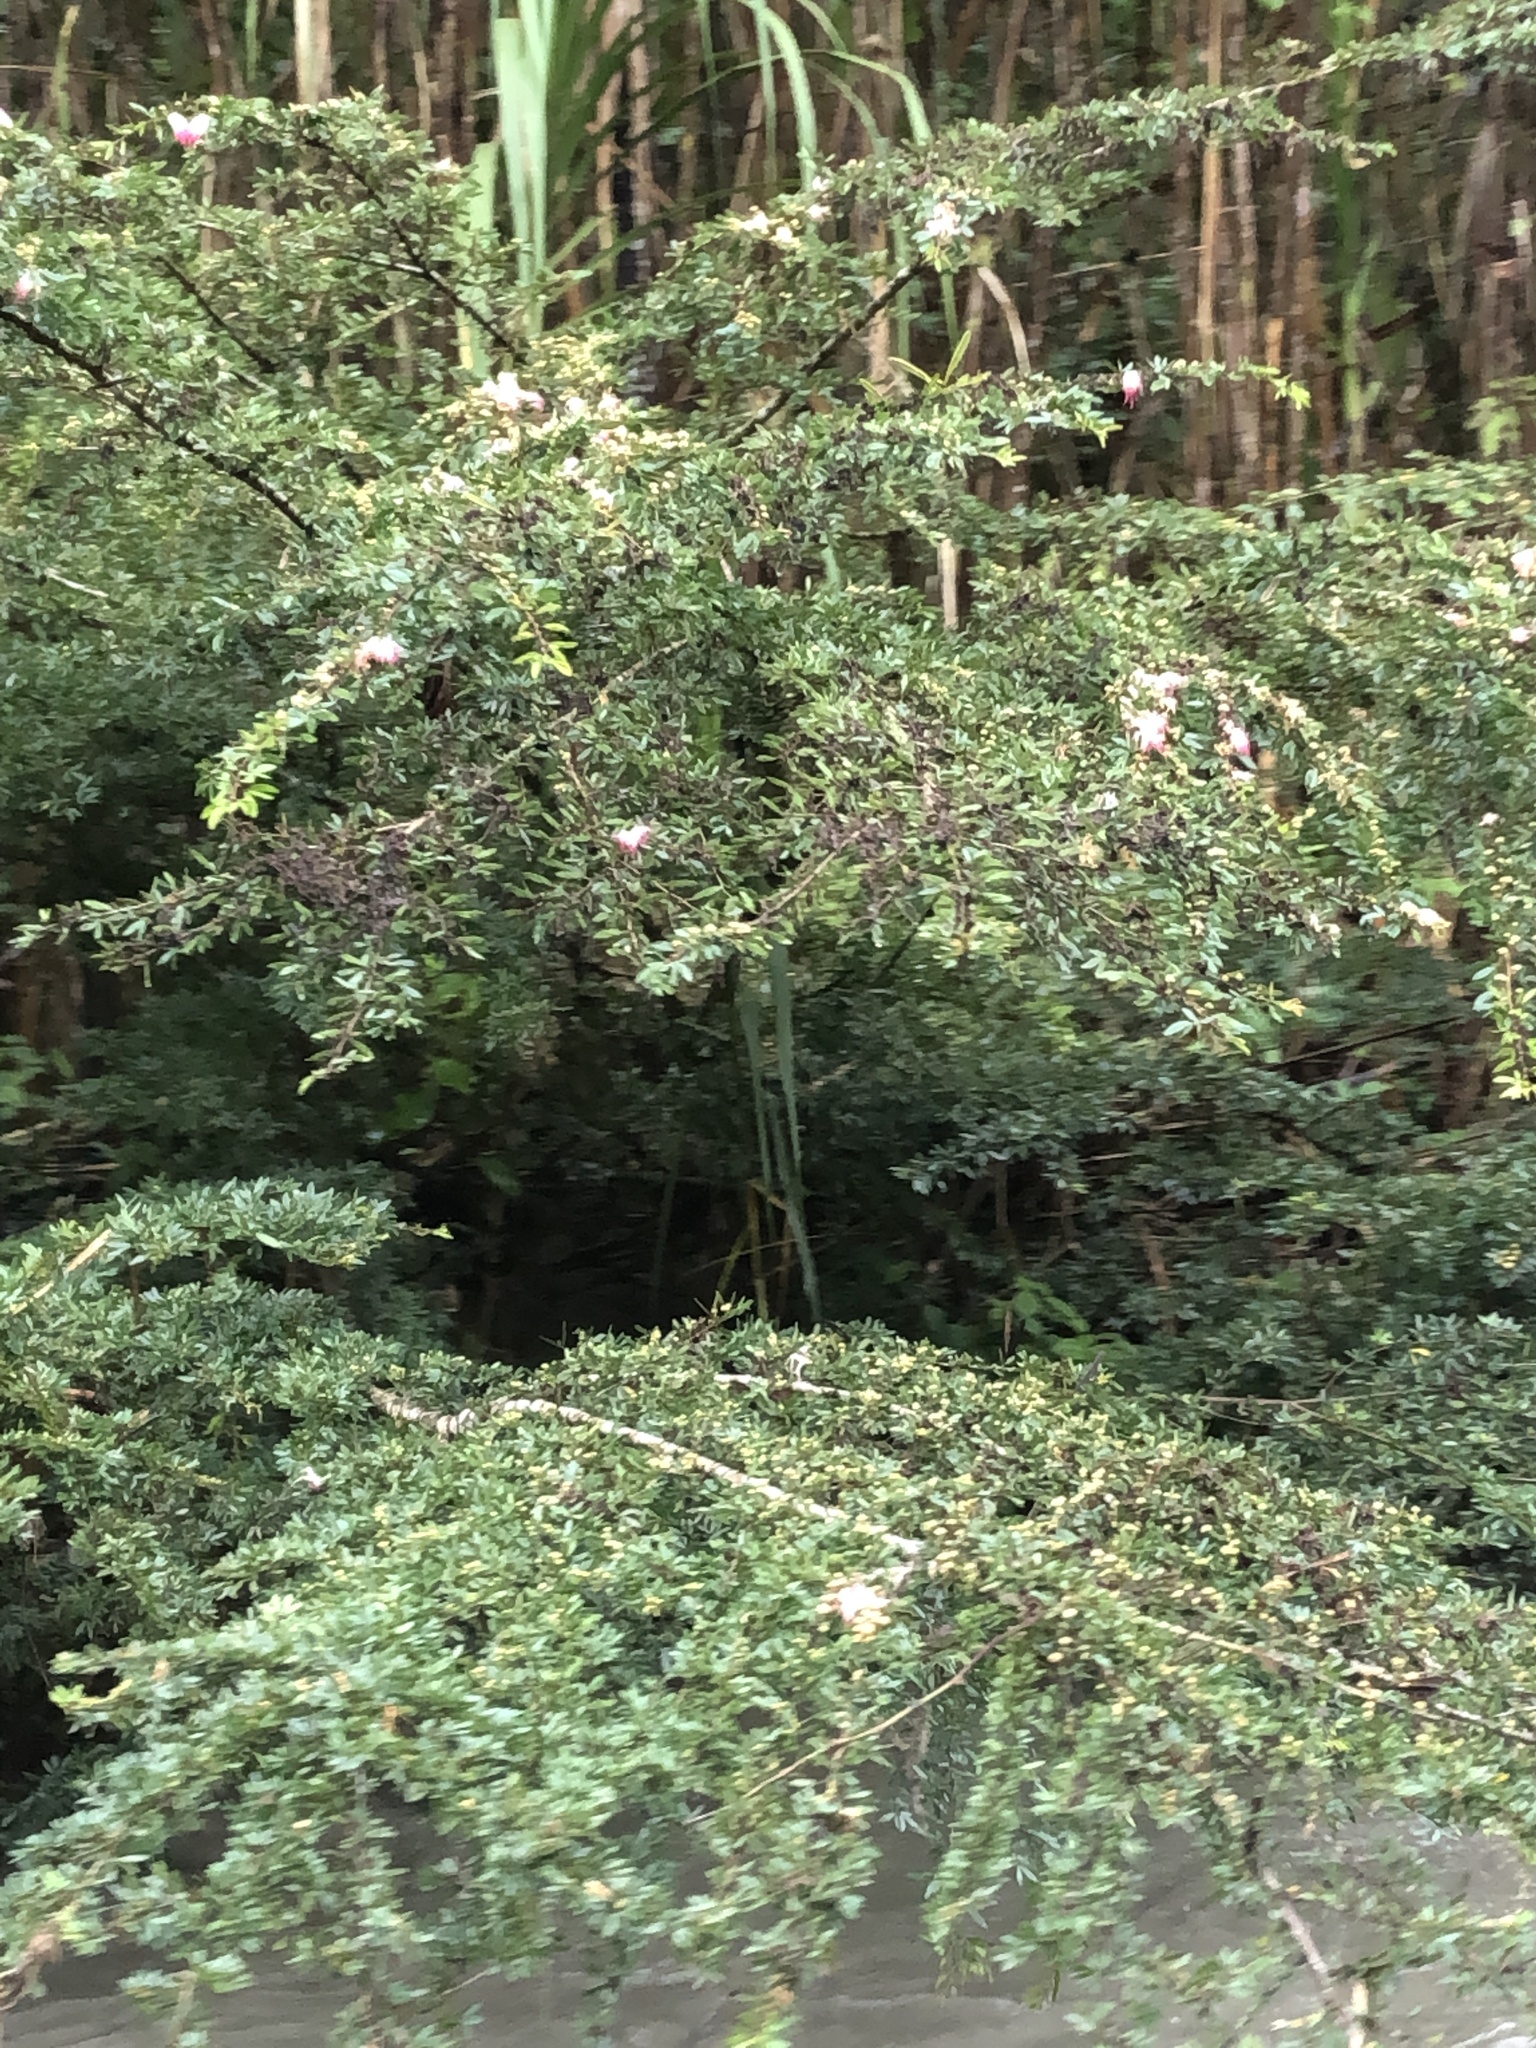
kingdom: Plantae
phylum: Tracheophyta
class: Magnoliopsida
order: Fabales
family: Fabaceae
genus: Calliandra
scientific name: Calliandra angustifolia
